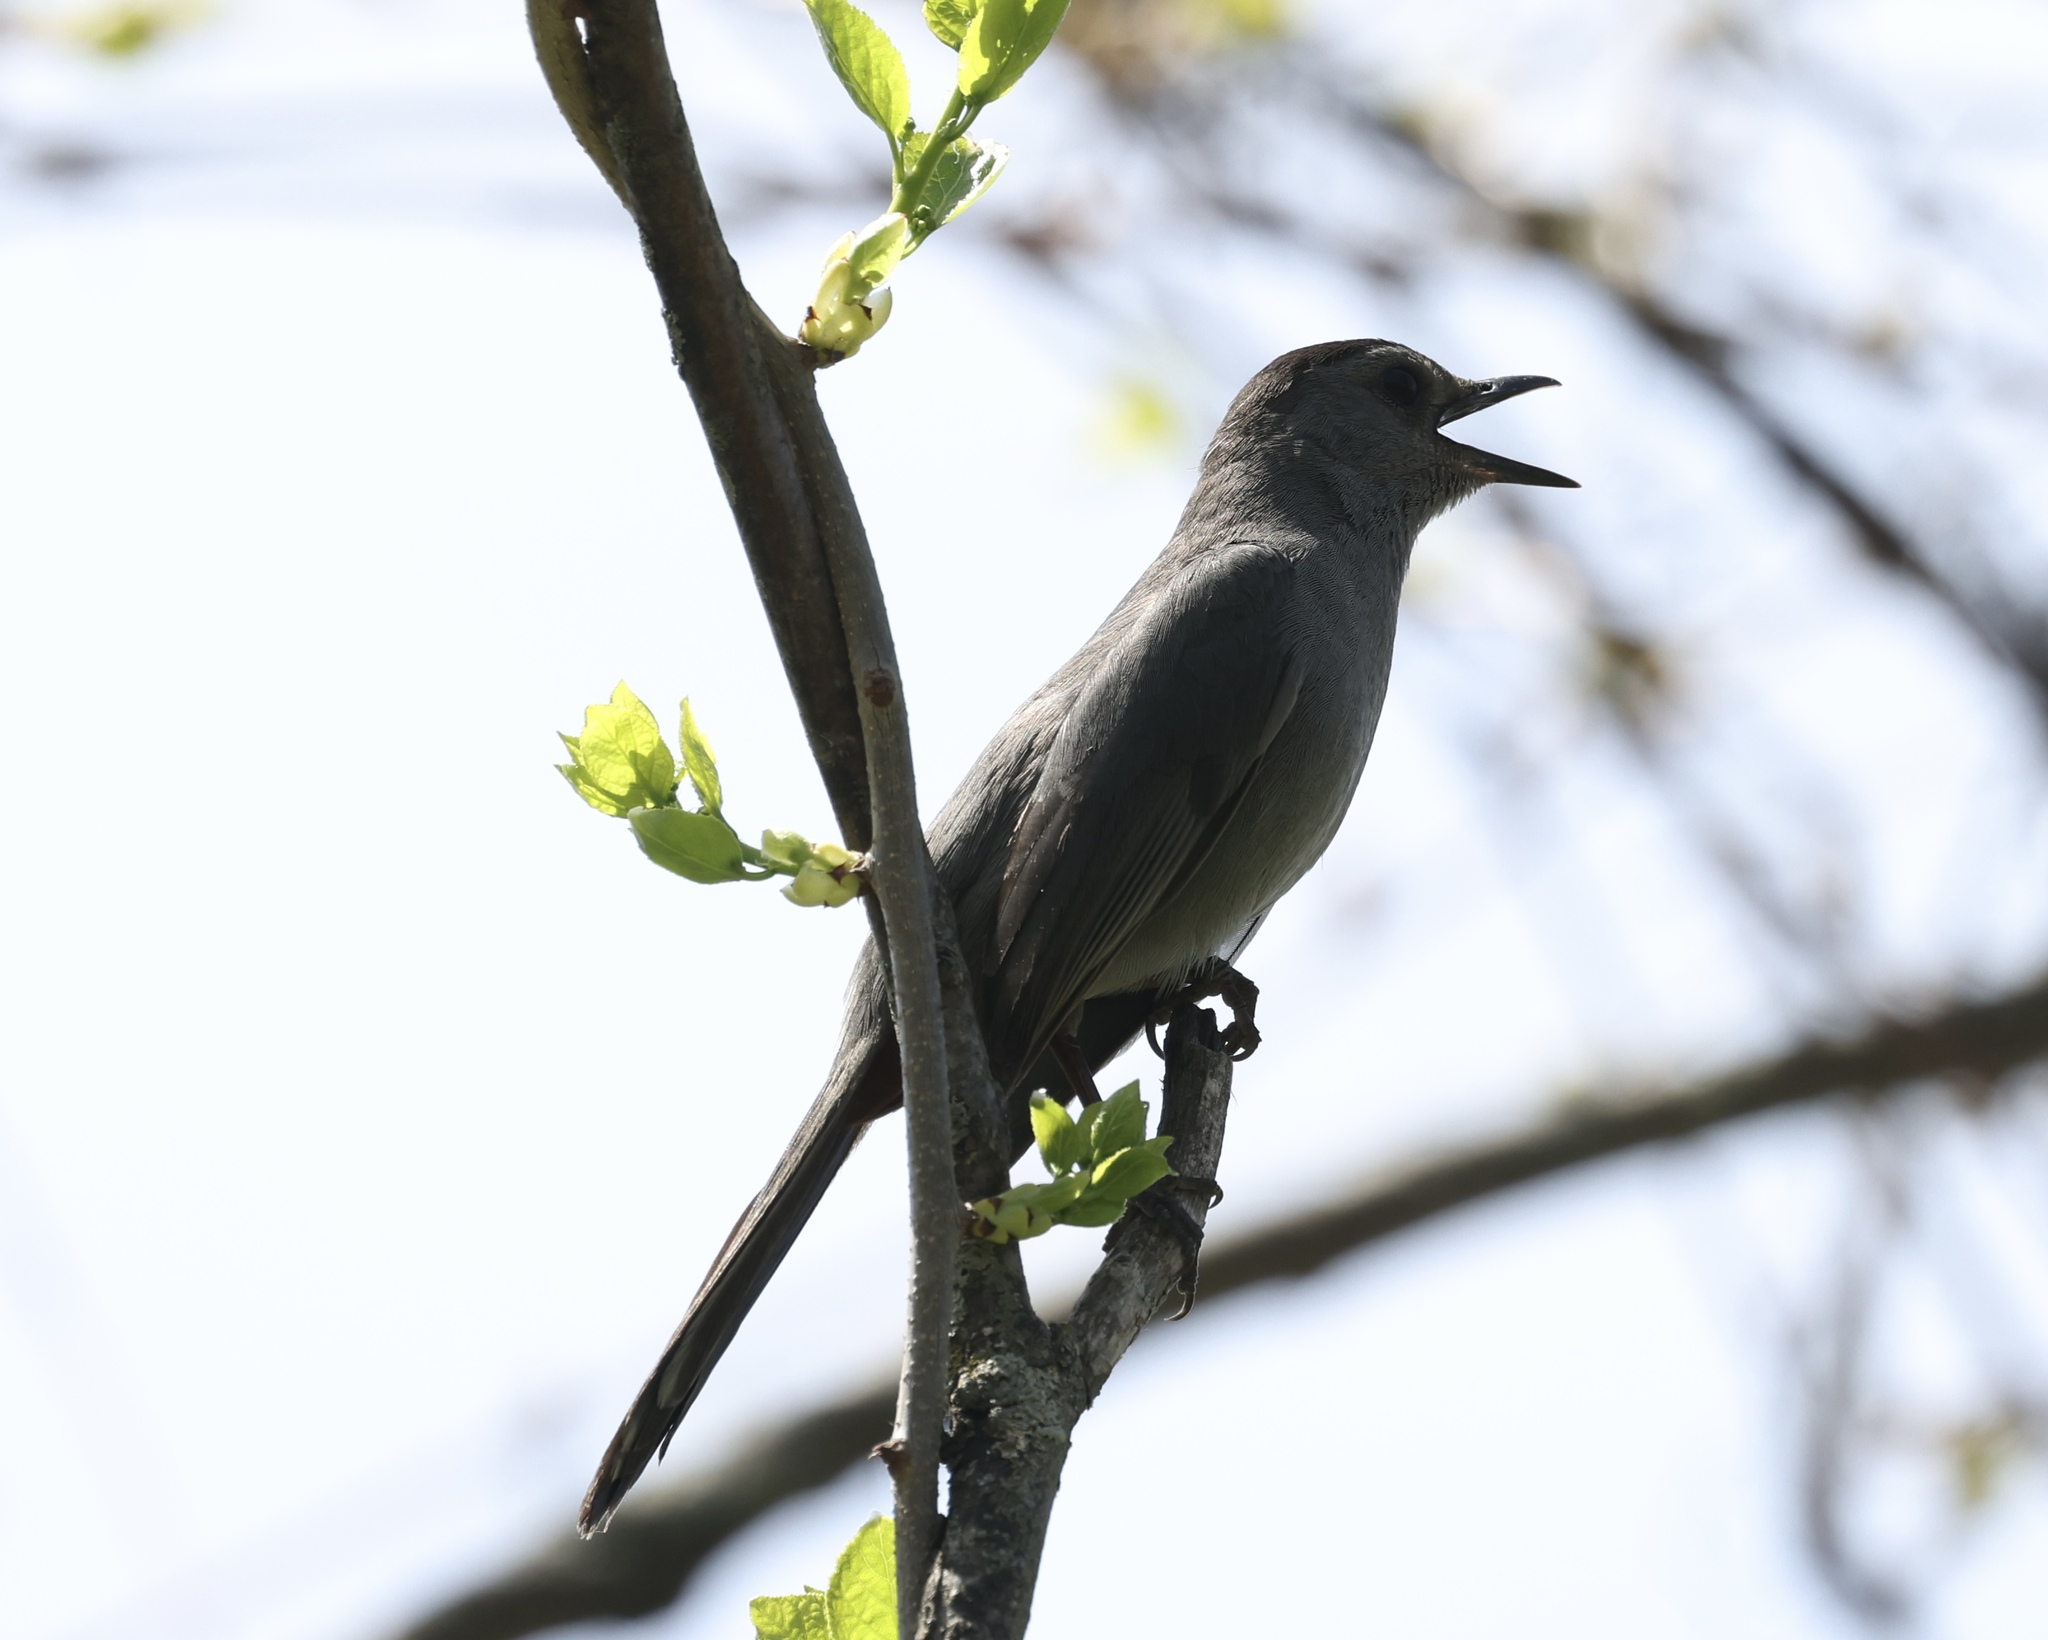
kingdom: Animalia
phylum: Chordata
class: Aves
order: Passeriformes
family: Mimidae
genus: Dumetella
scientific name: Dumetella carolinensis
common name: Gray catbird
